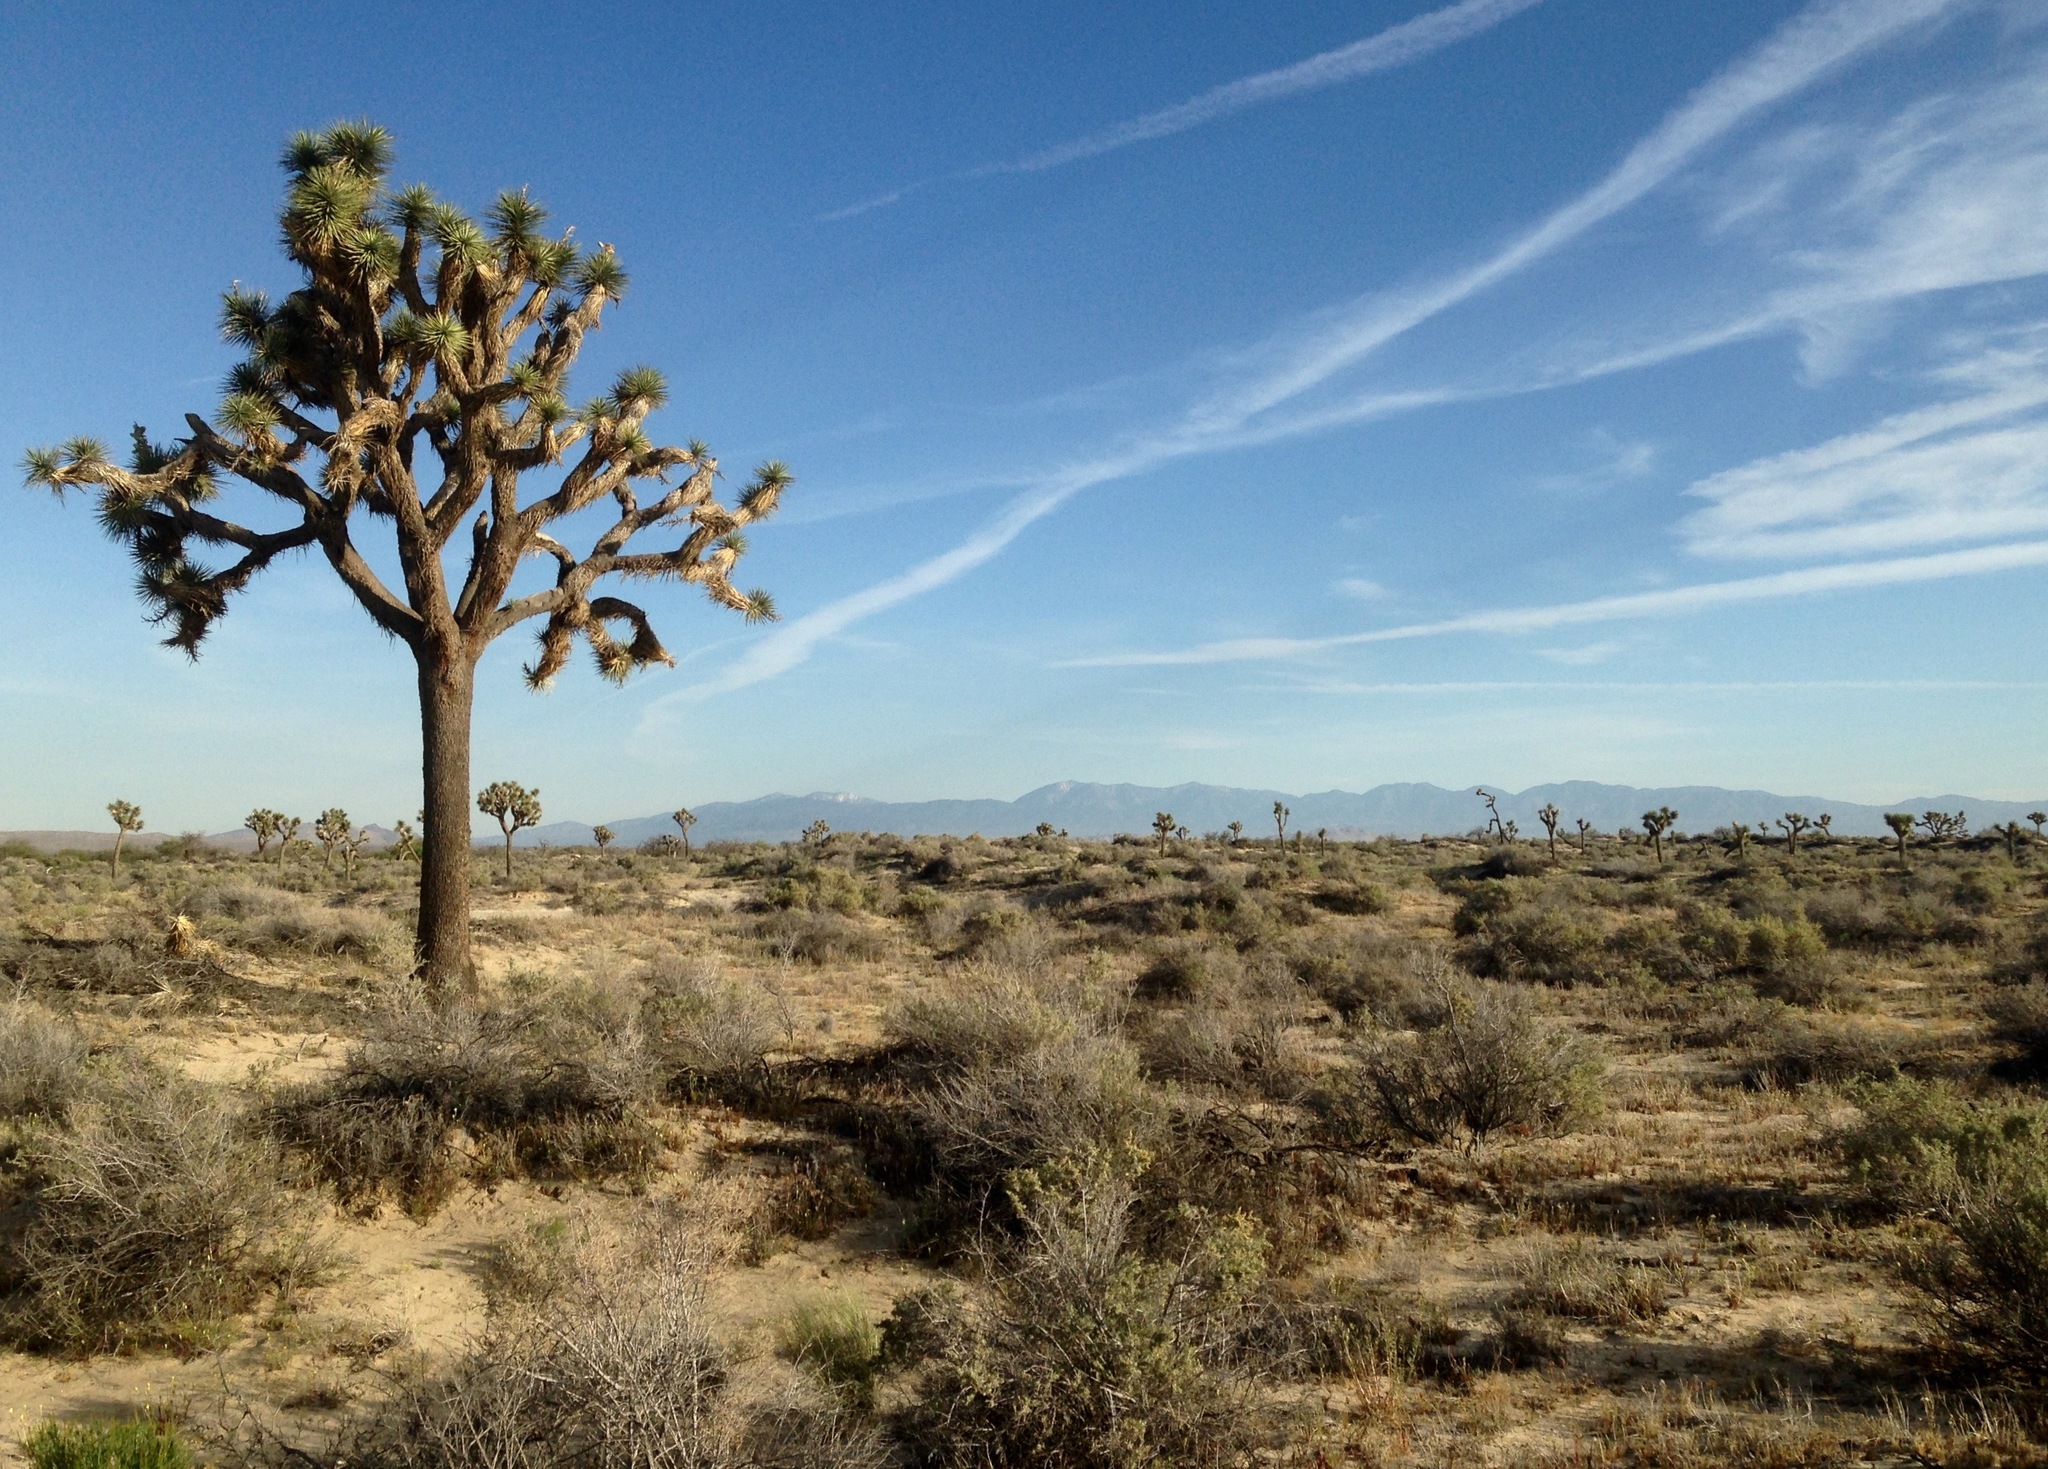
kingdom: Plantae
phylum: Tracheophyta
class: Liliopsida
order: Asparagales
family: Asparagaceae
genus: Yucca
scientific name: Yucca brevifolia
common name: Joshua tree
